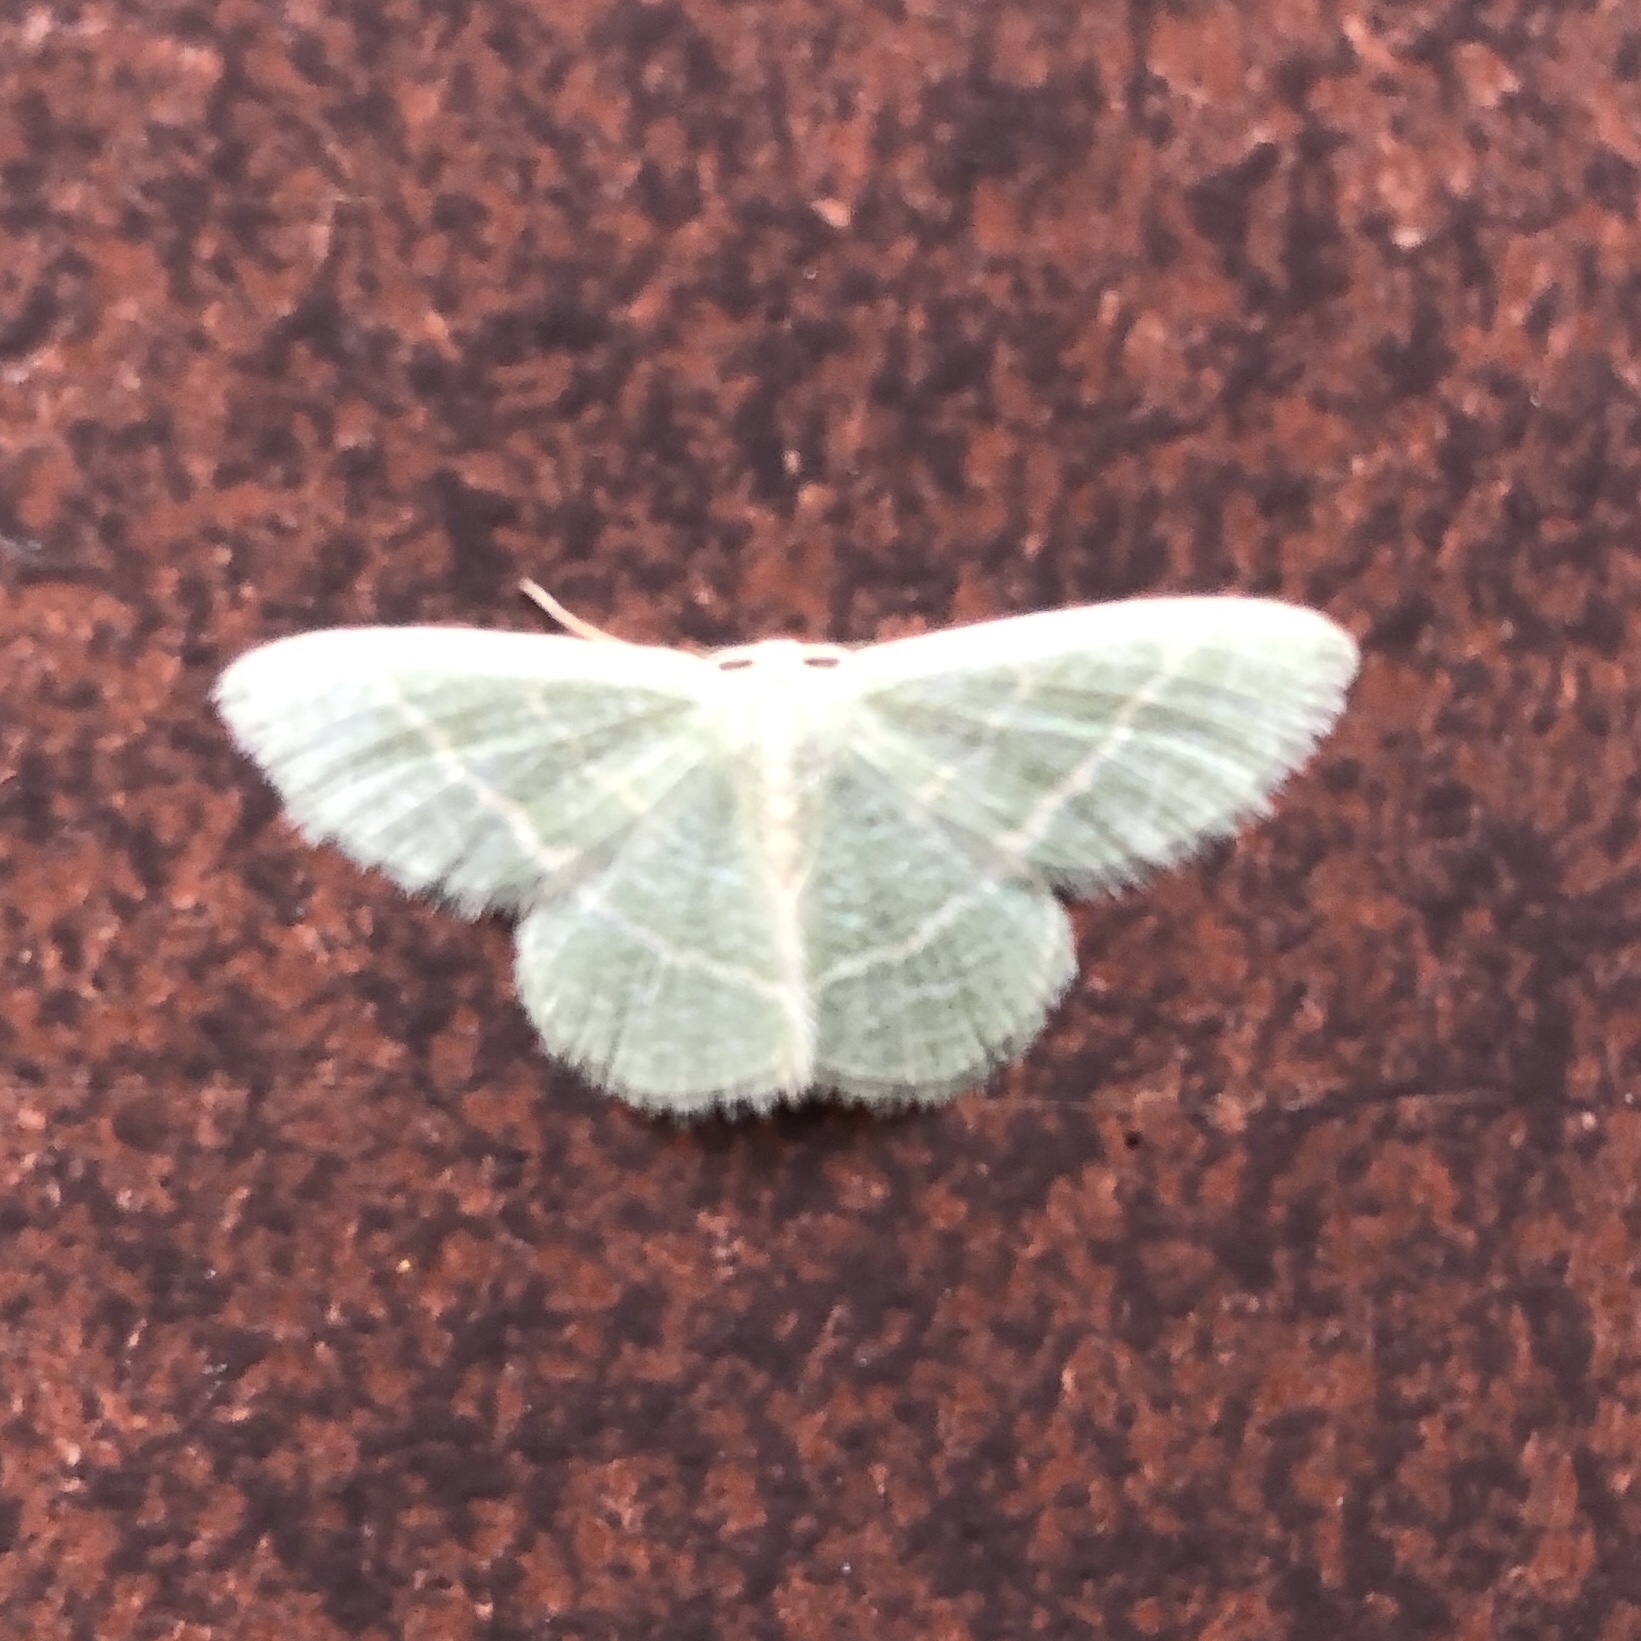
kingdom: Animalia
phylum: Arthropoda
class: Insecta
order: Lepidoptera
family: Geometridae
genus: Chlorochlamys
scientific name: Chlorochlamys chloroleucaria
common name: Blackberry looper
